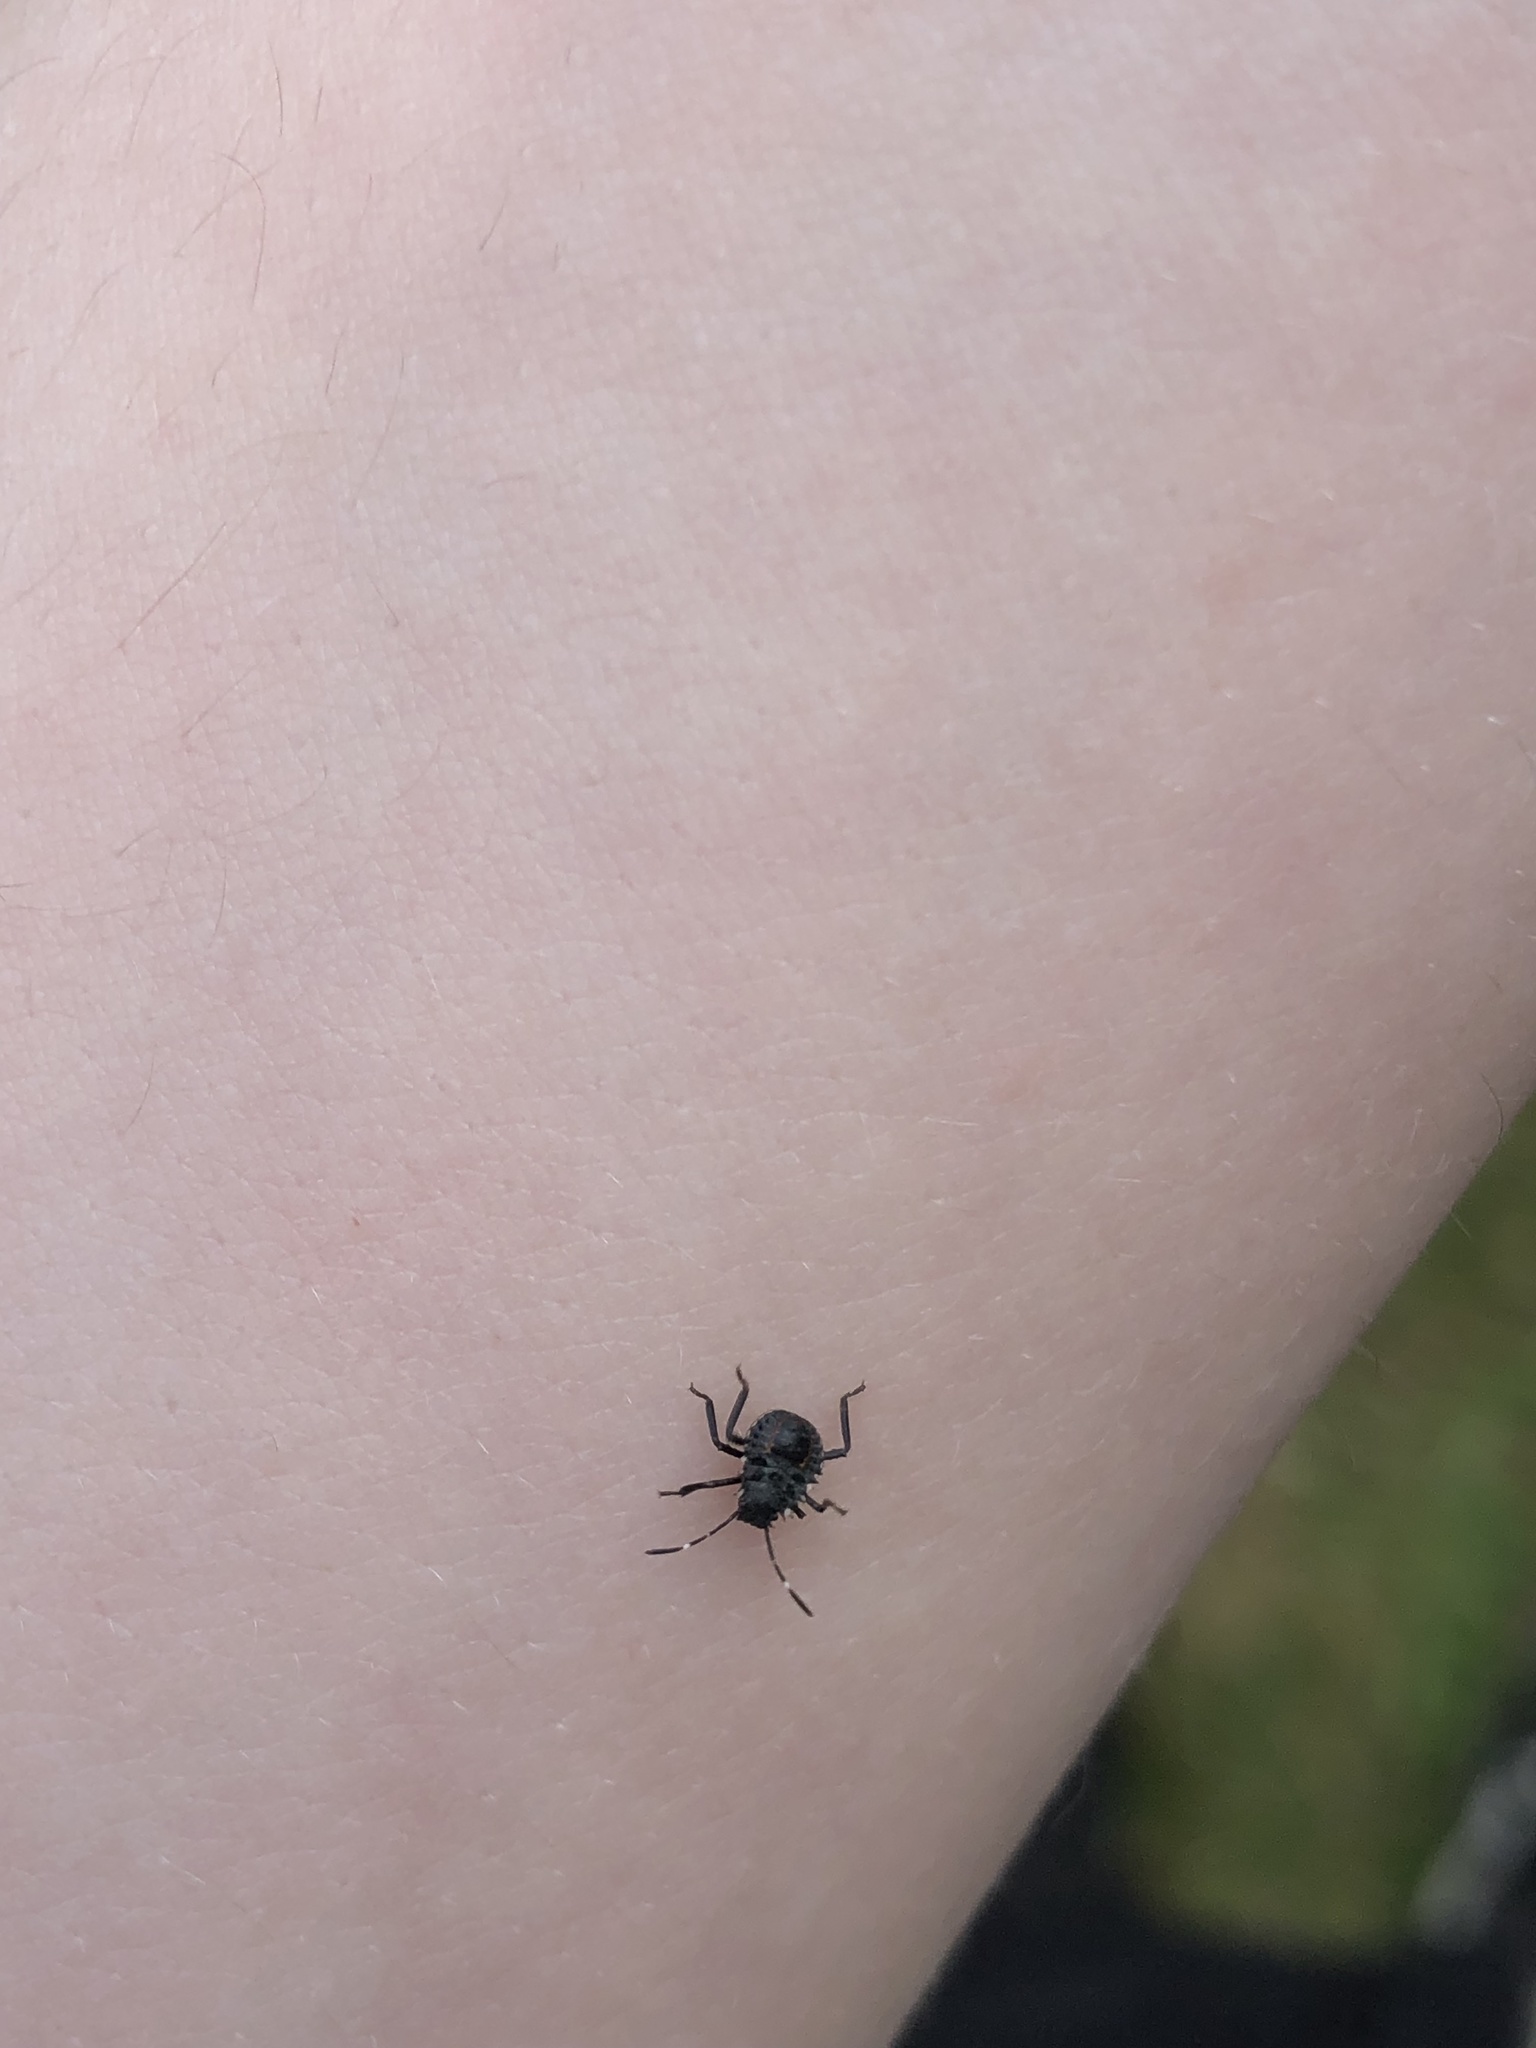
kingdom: Animalia
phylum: Arthropoda
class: Insecta
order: Hemiptera
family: Pentatomidae
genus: Halyomorpha
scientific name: Halyomorpha halys
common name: Brown marmorated stink bug
